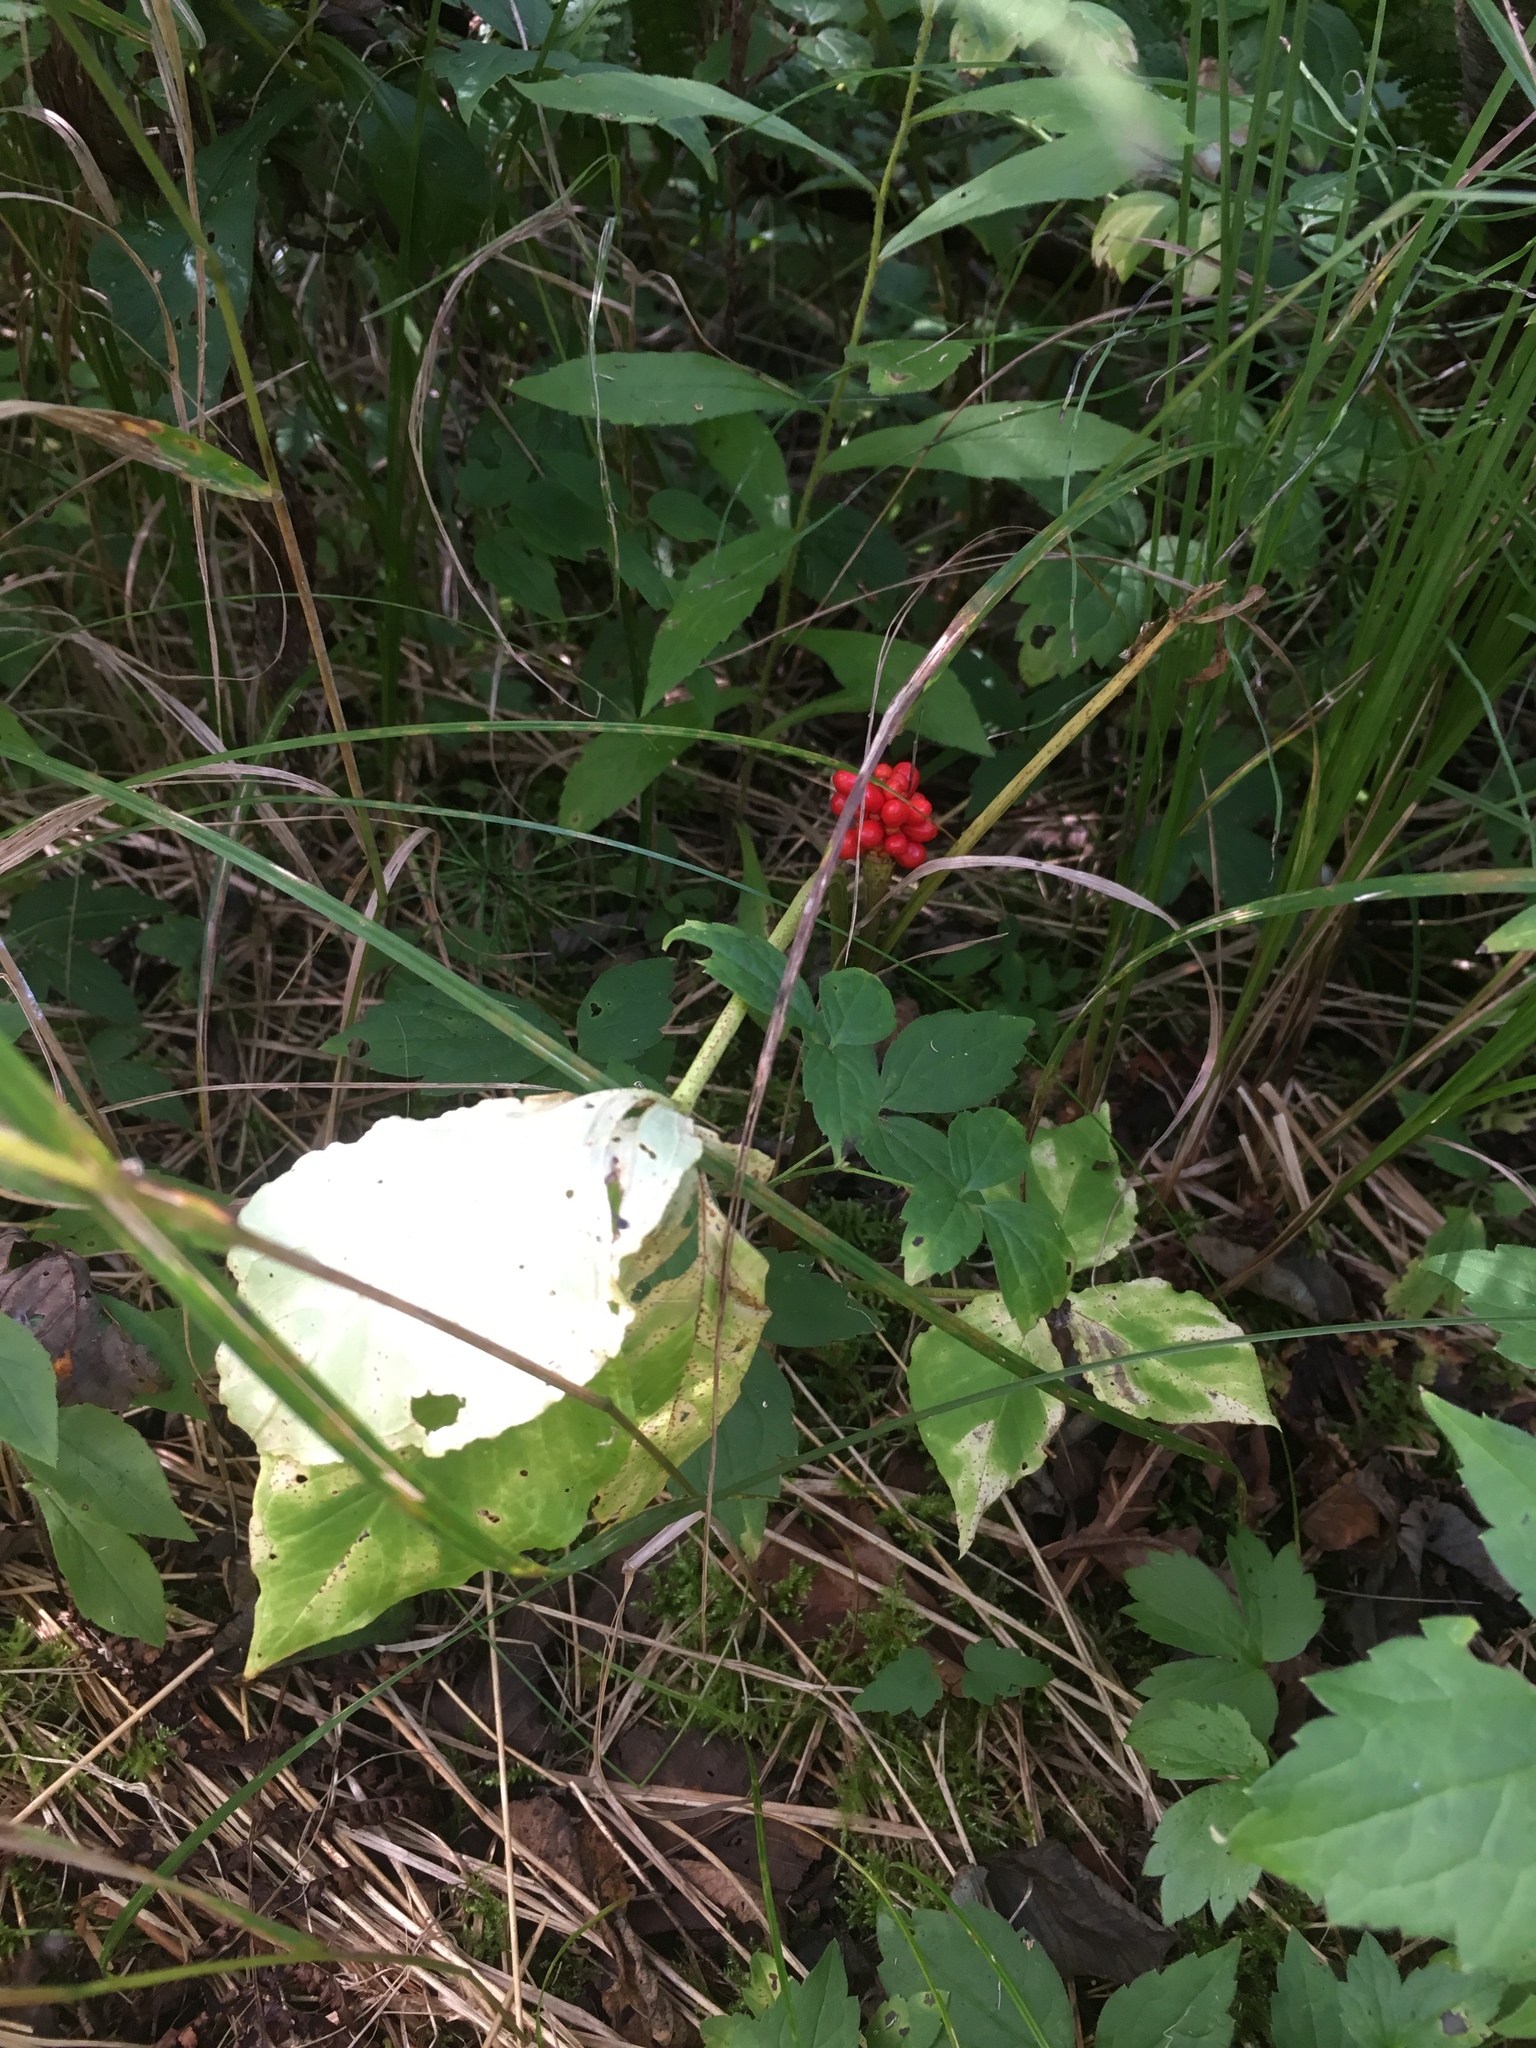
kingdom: Plantae
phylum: Tracheophyta
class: Liliopsida
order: Alismatales
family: Araceae
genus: Arisaema
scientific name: Arisaema triphyllum
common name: Jack-in-the-pulpit
